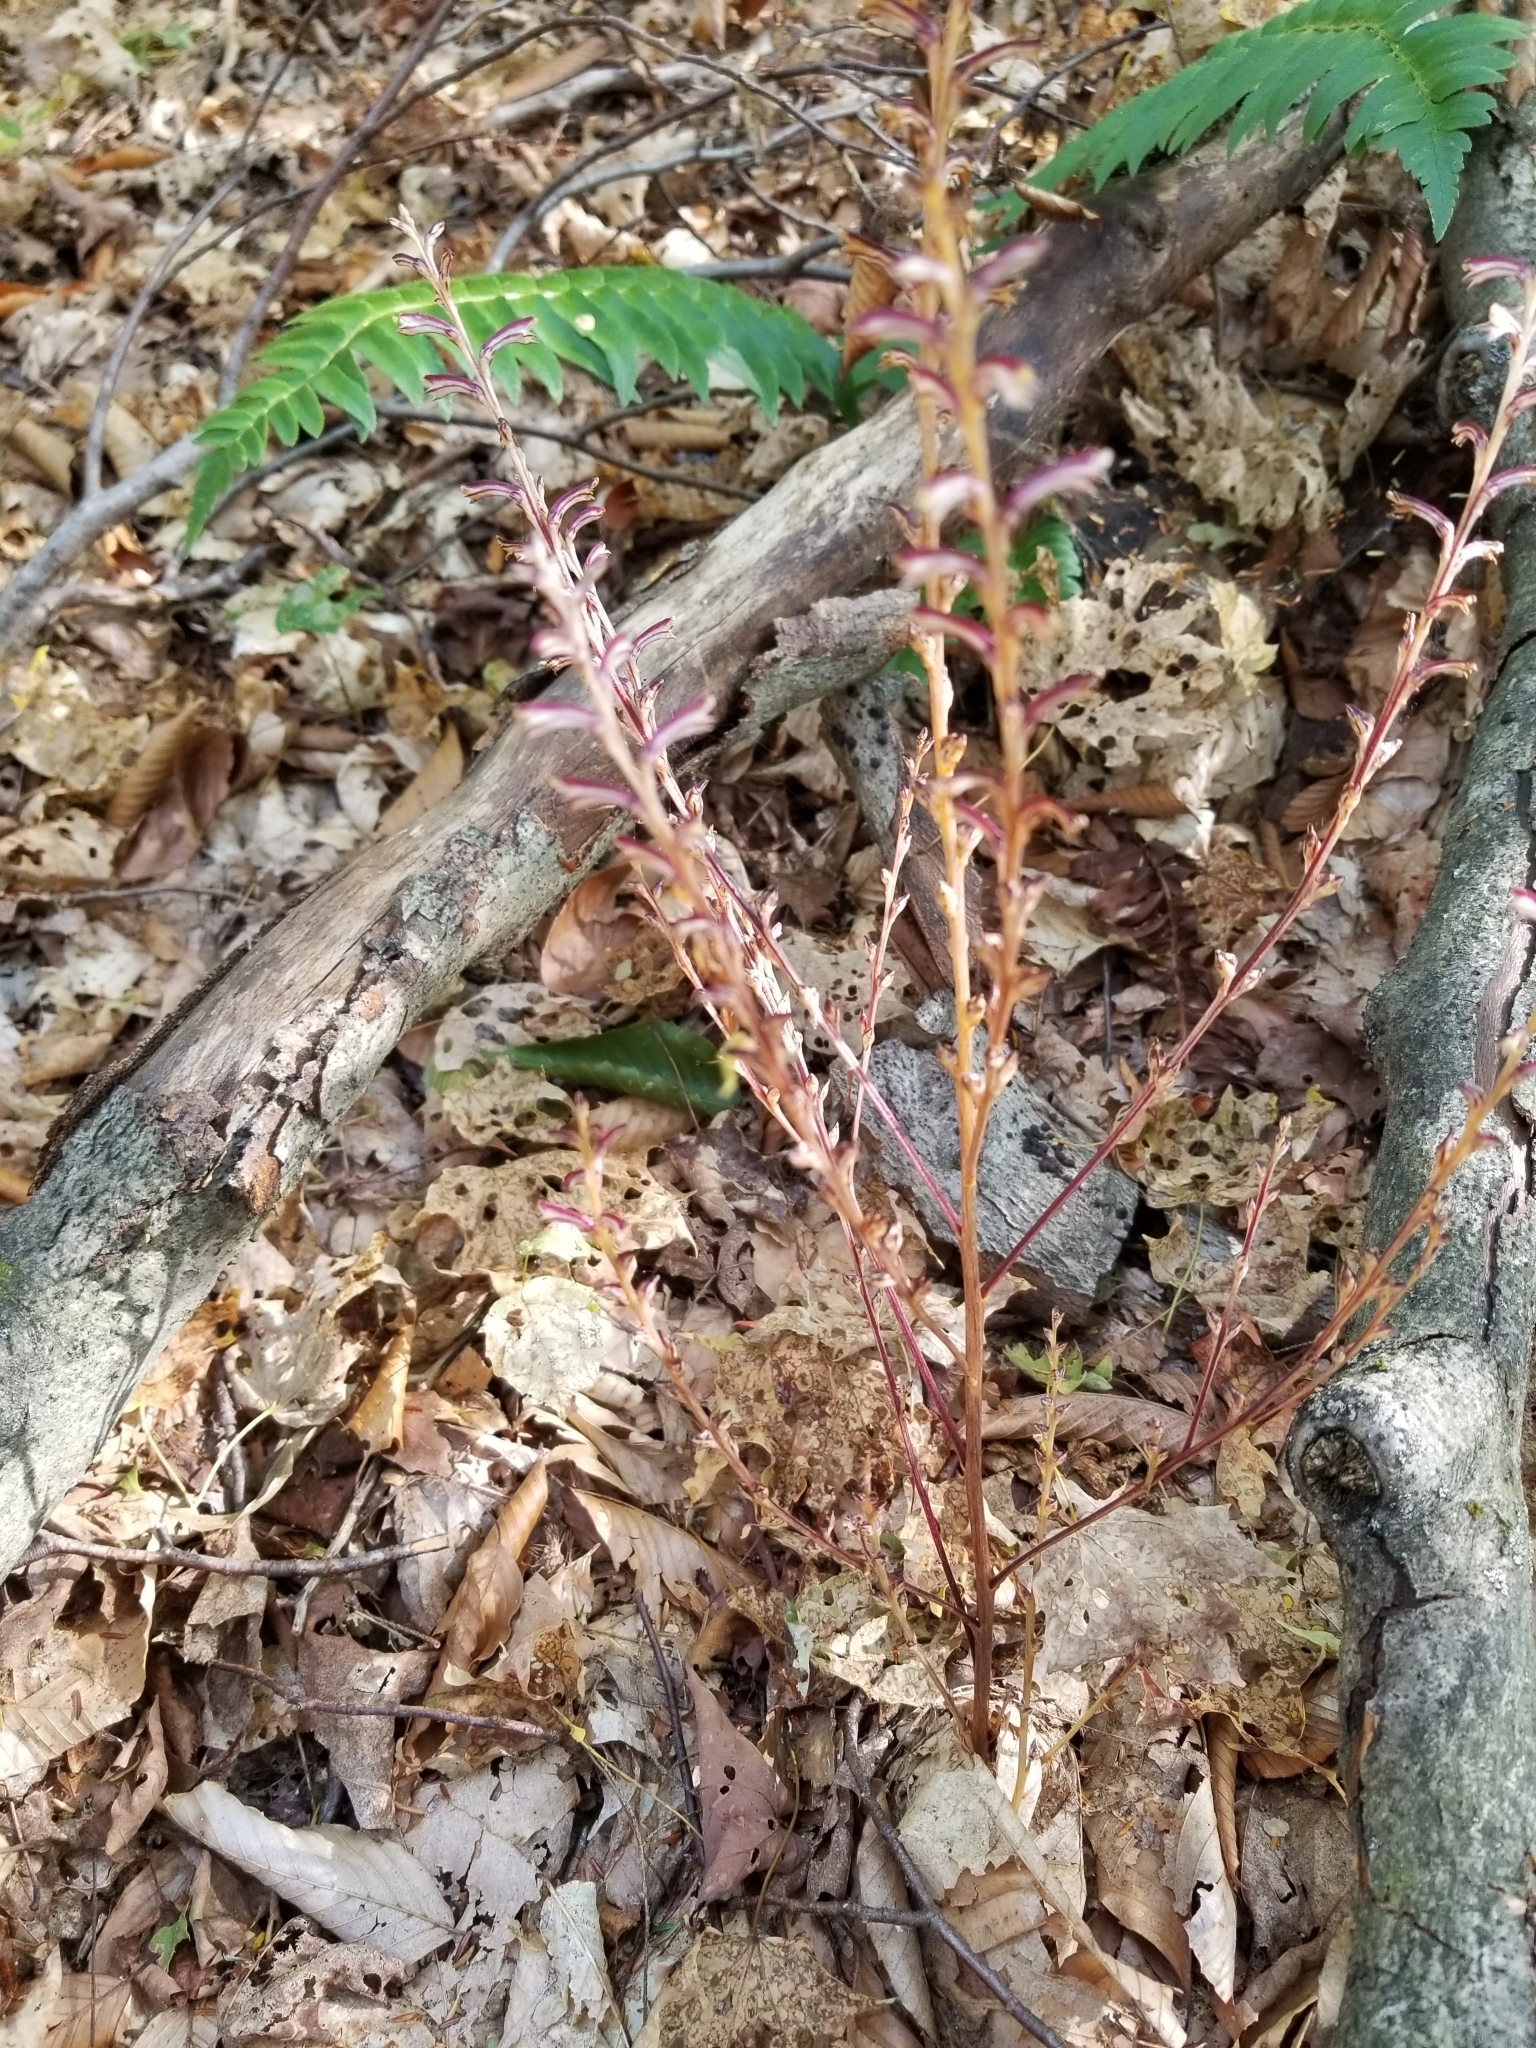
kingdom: Plantae
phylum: Tracheophyta
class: Magnoliopsida
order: Lamiales
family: Orobanchaceae
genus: Epifagus
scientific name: Epifagus virginiana
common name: Beechdrops
